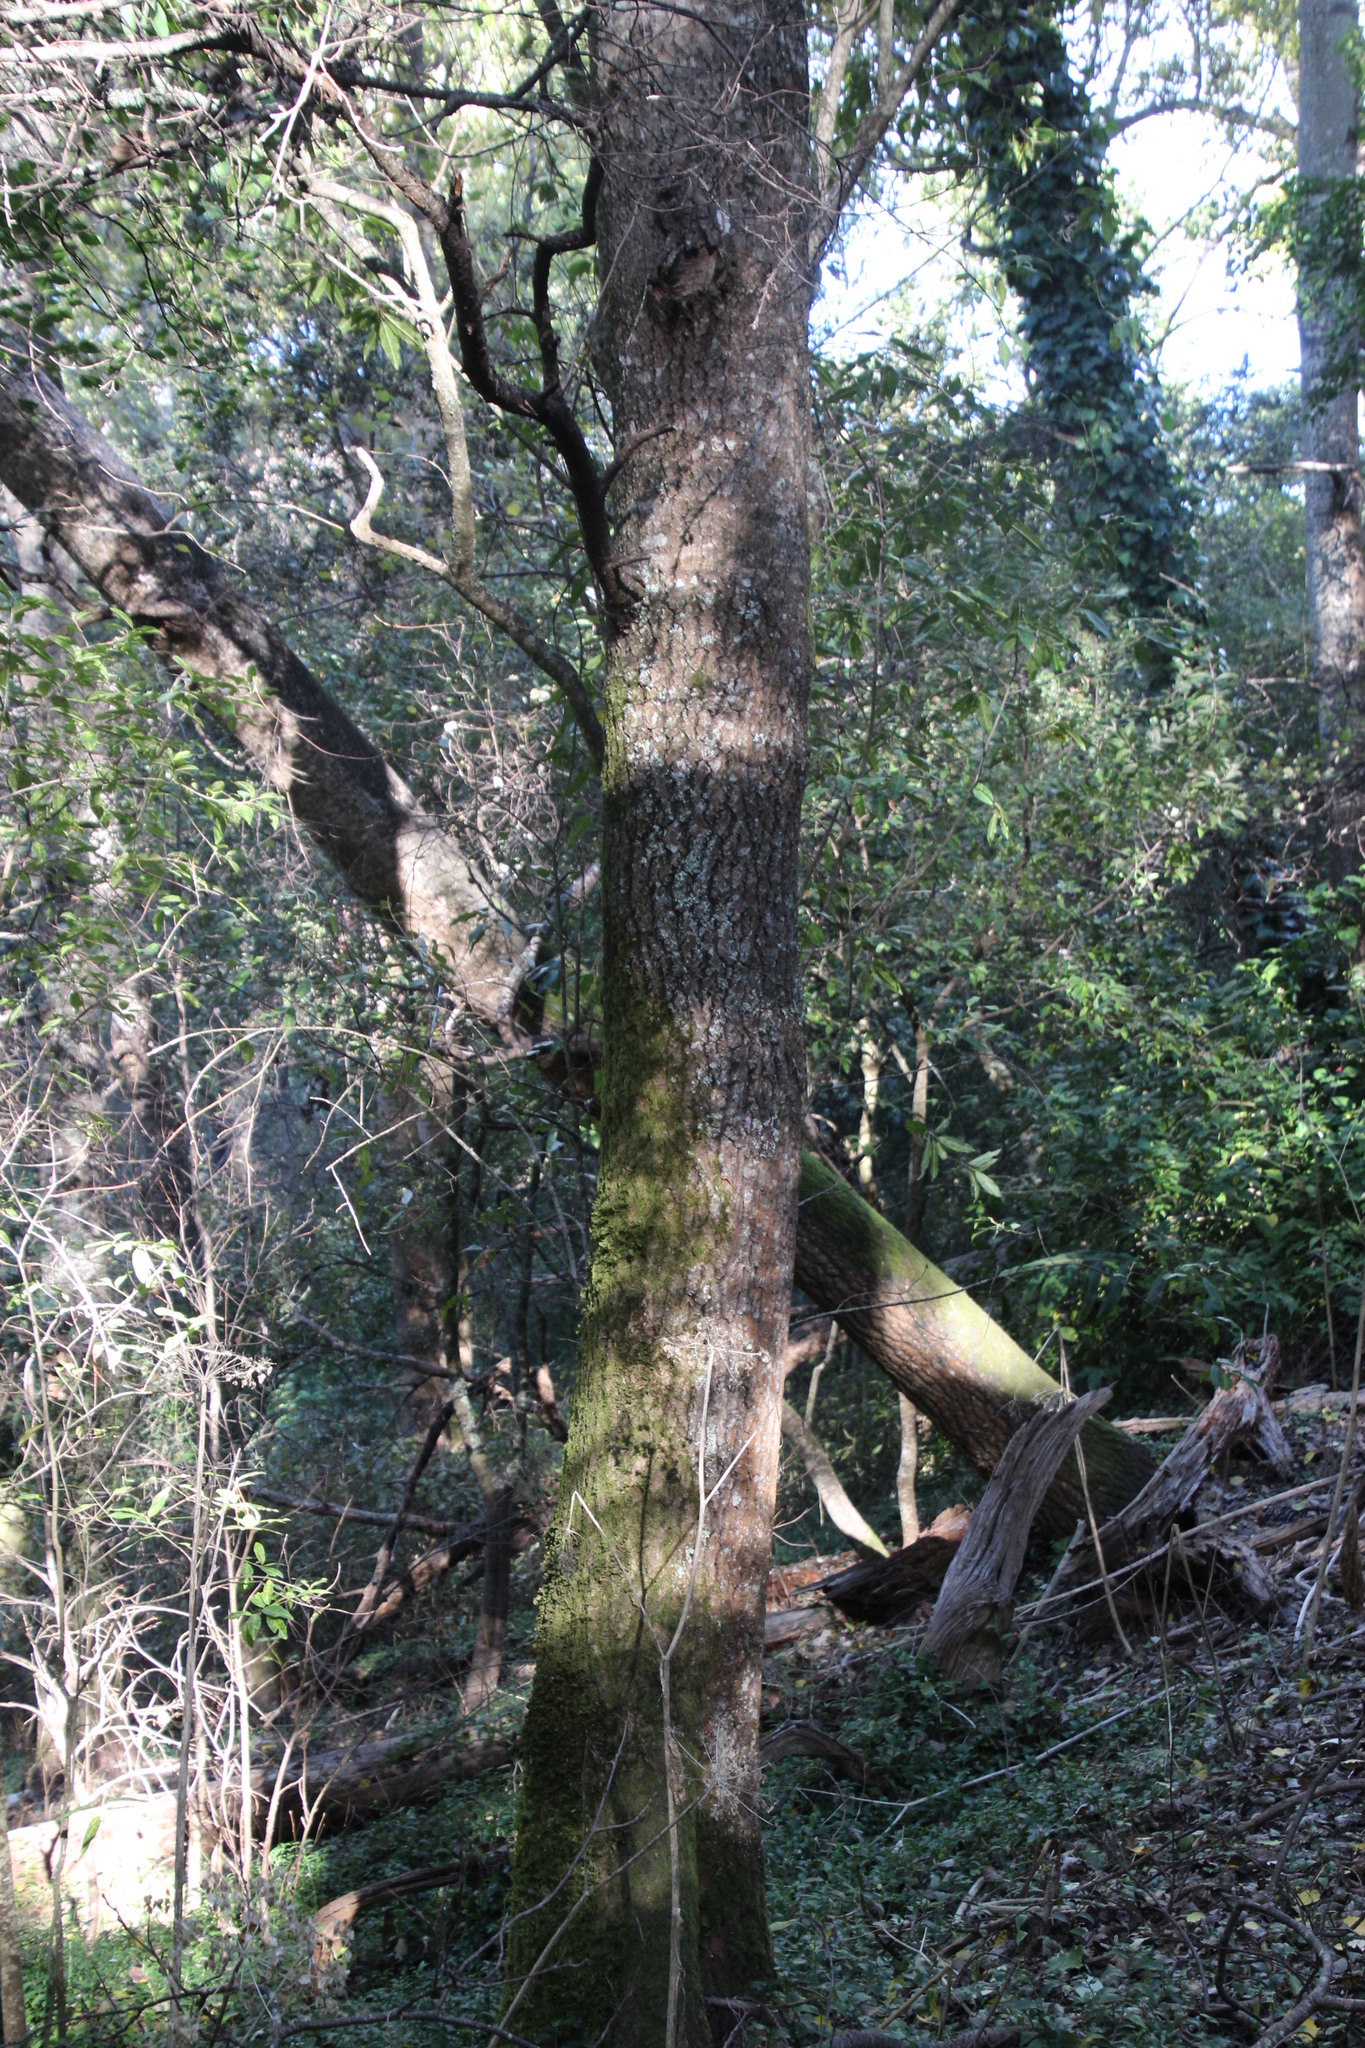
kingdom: Plantae
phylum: Tracheophyta
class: Magnoliopsida
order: Malpighiales
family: Salicaceae
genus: Populus
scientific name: Populus canescens
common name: Gray poplar
